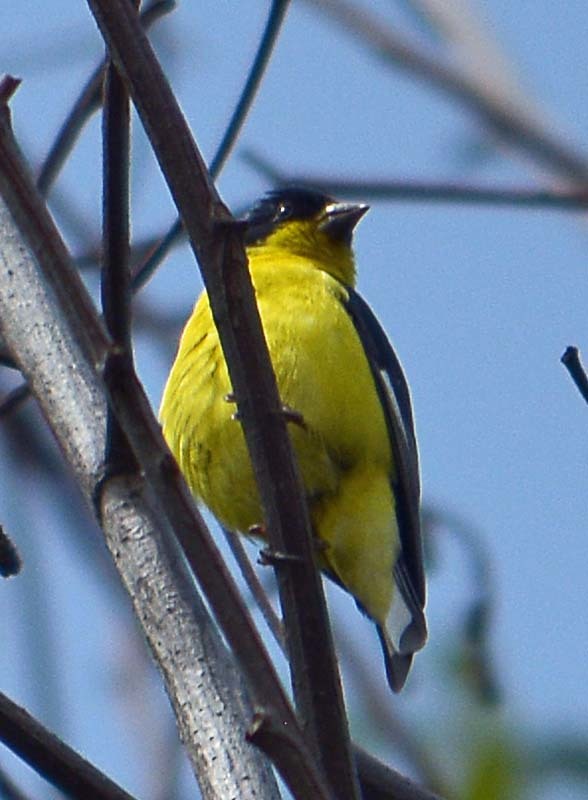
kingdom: Animalia
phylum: Chordata
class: Aves
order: Passeriformes
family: Fringillidae
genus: Spinus
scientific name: Spinus psaltria
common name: Lesser goldfinch
